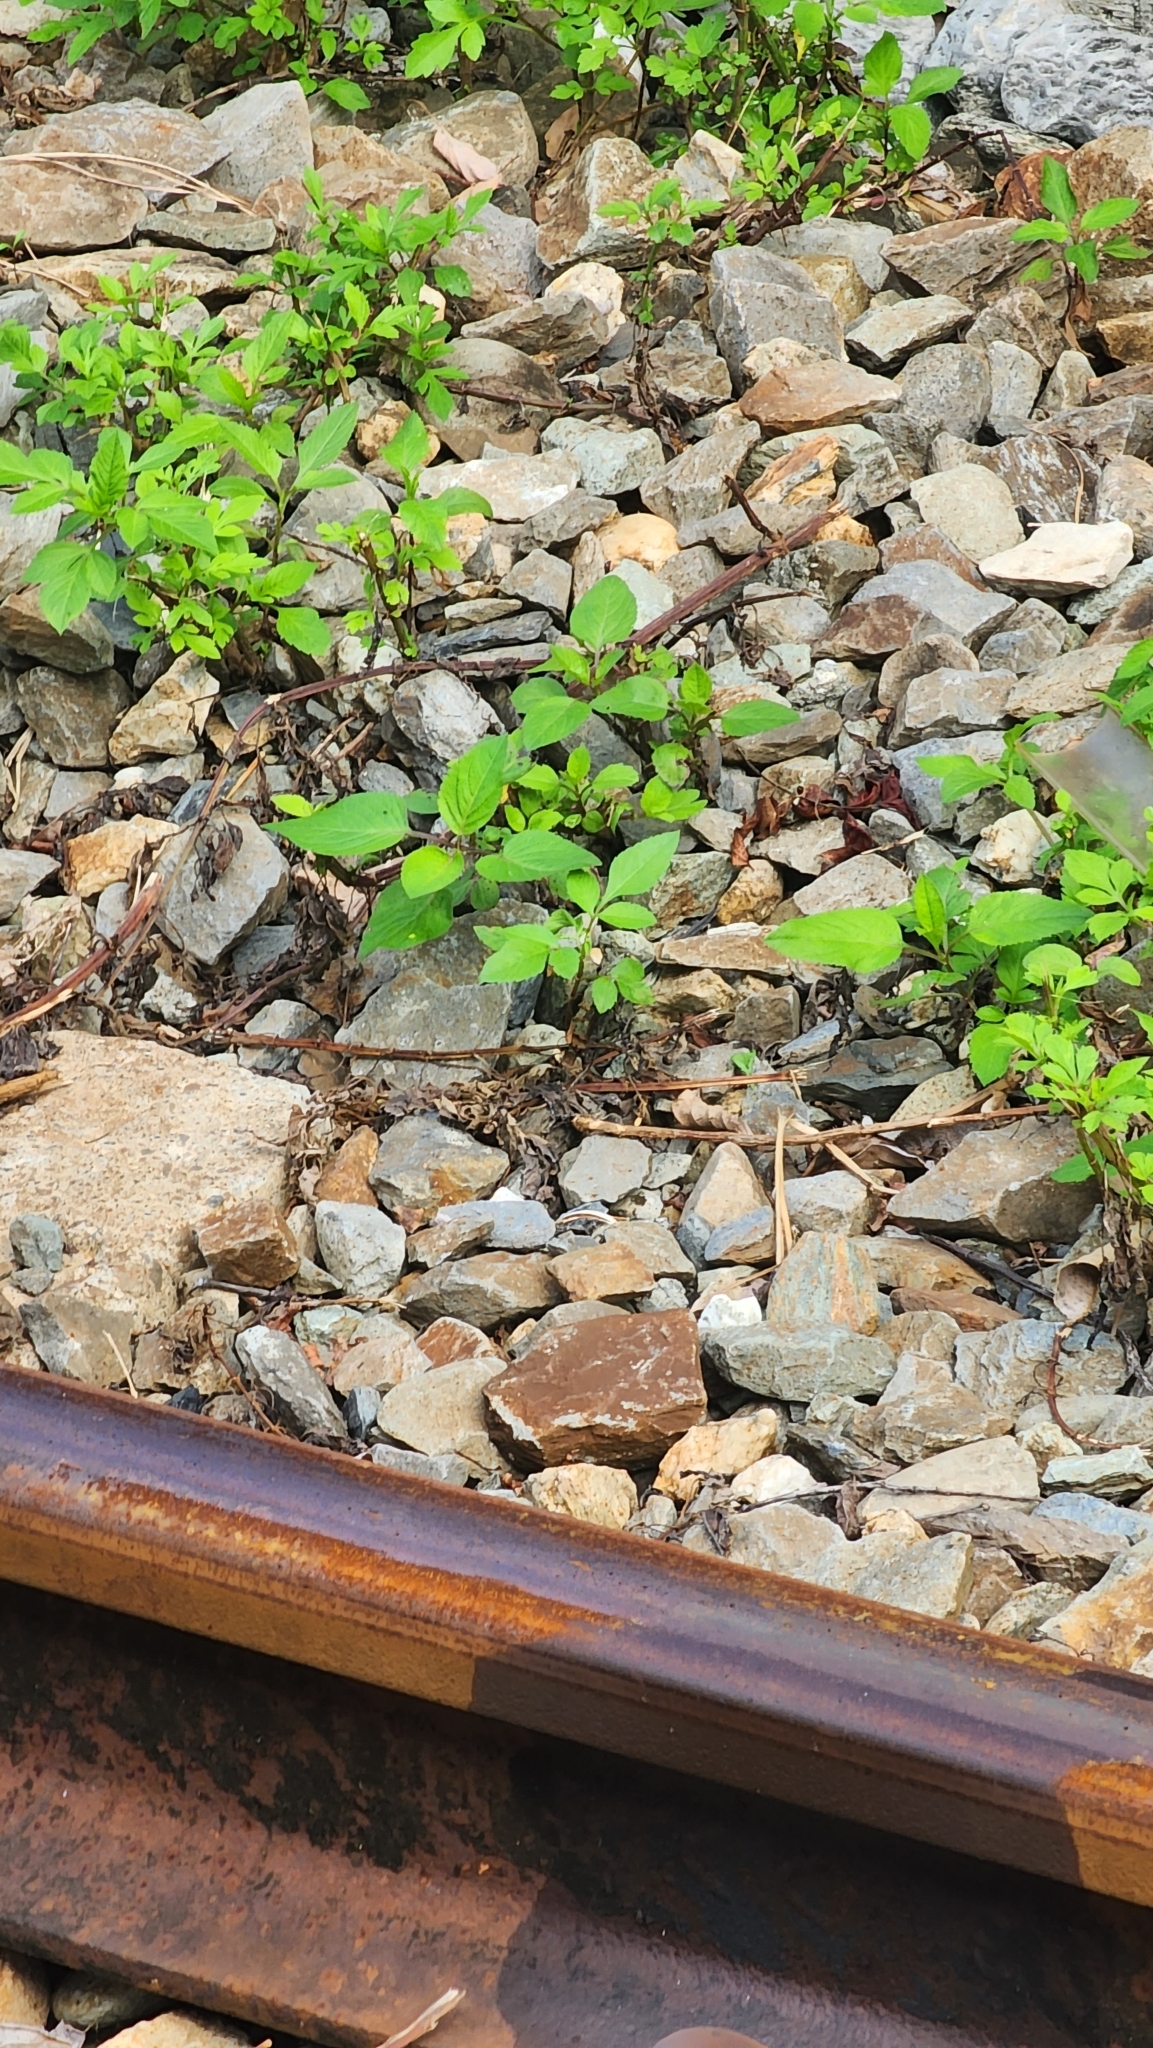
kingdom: Plantae
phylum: Tracheophyta
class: Magnoliopsida
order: Asterales
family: Asteraceae
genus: Bidens
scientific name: Bidens alba
